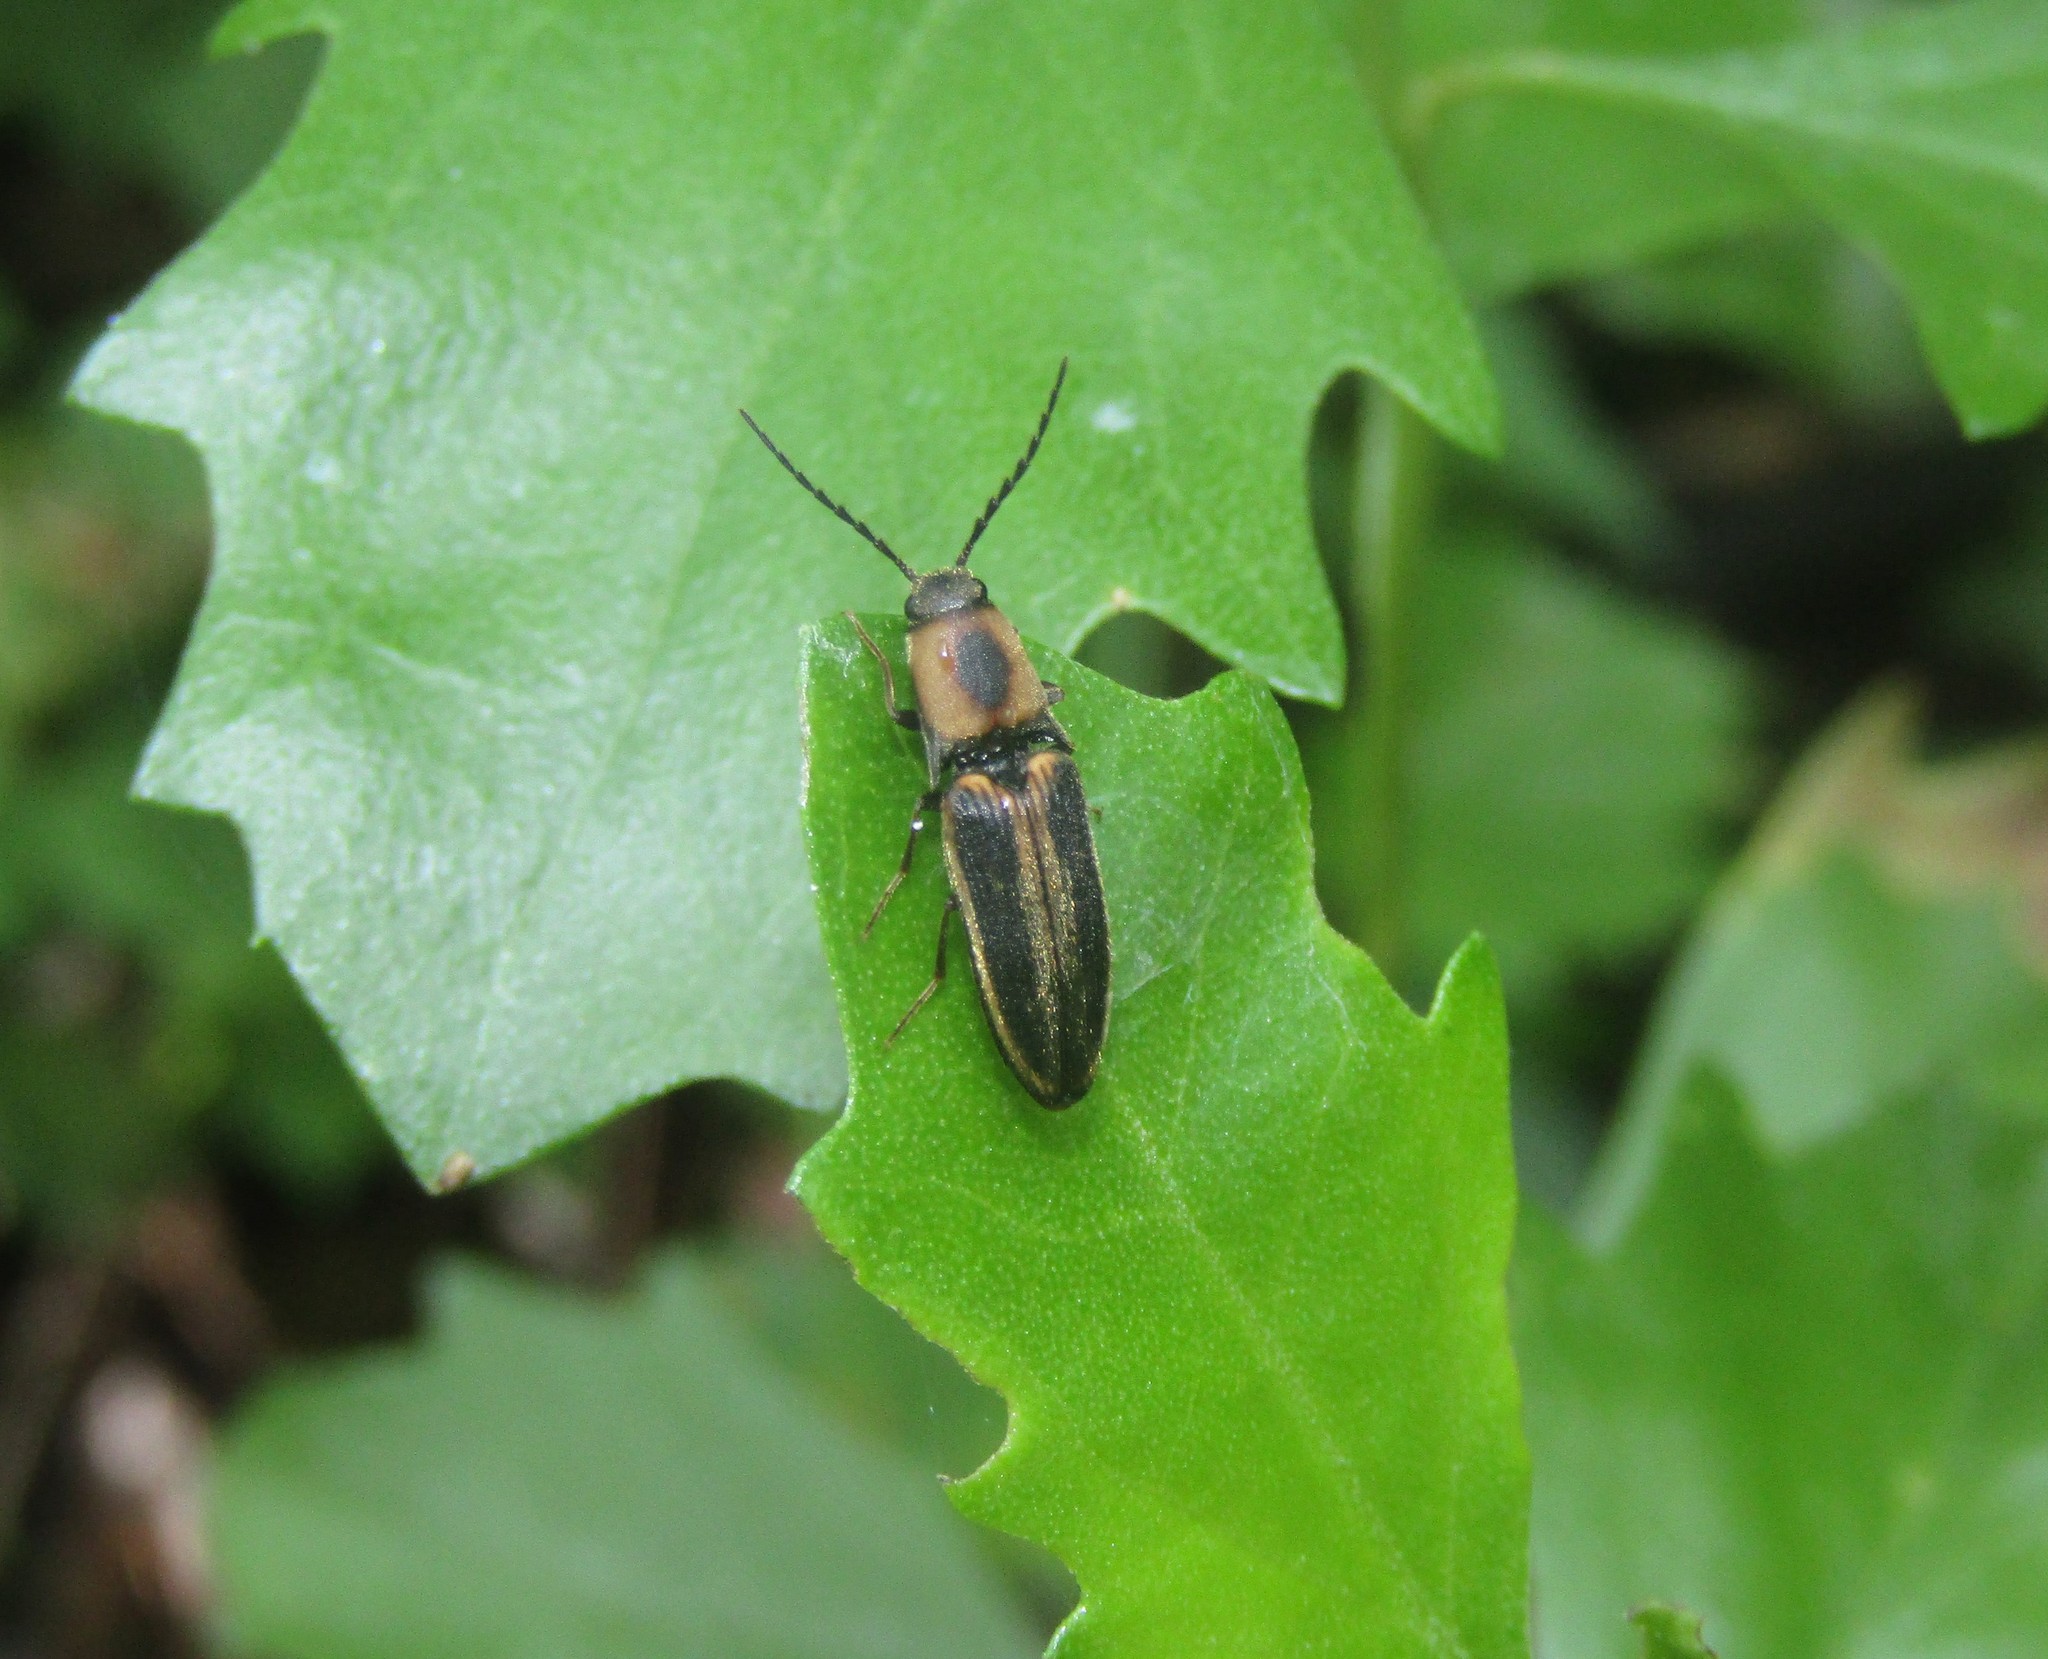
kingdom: Animalia
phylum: Arthropoda
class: Insecta
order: Coleoptera
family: Elateridae
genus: Megapenthes
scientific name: Megapenthes
